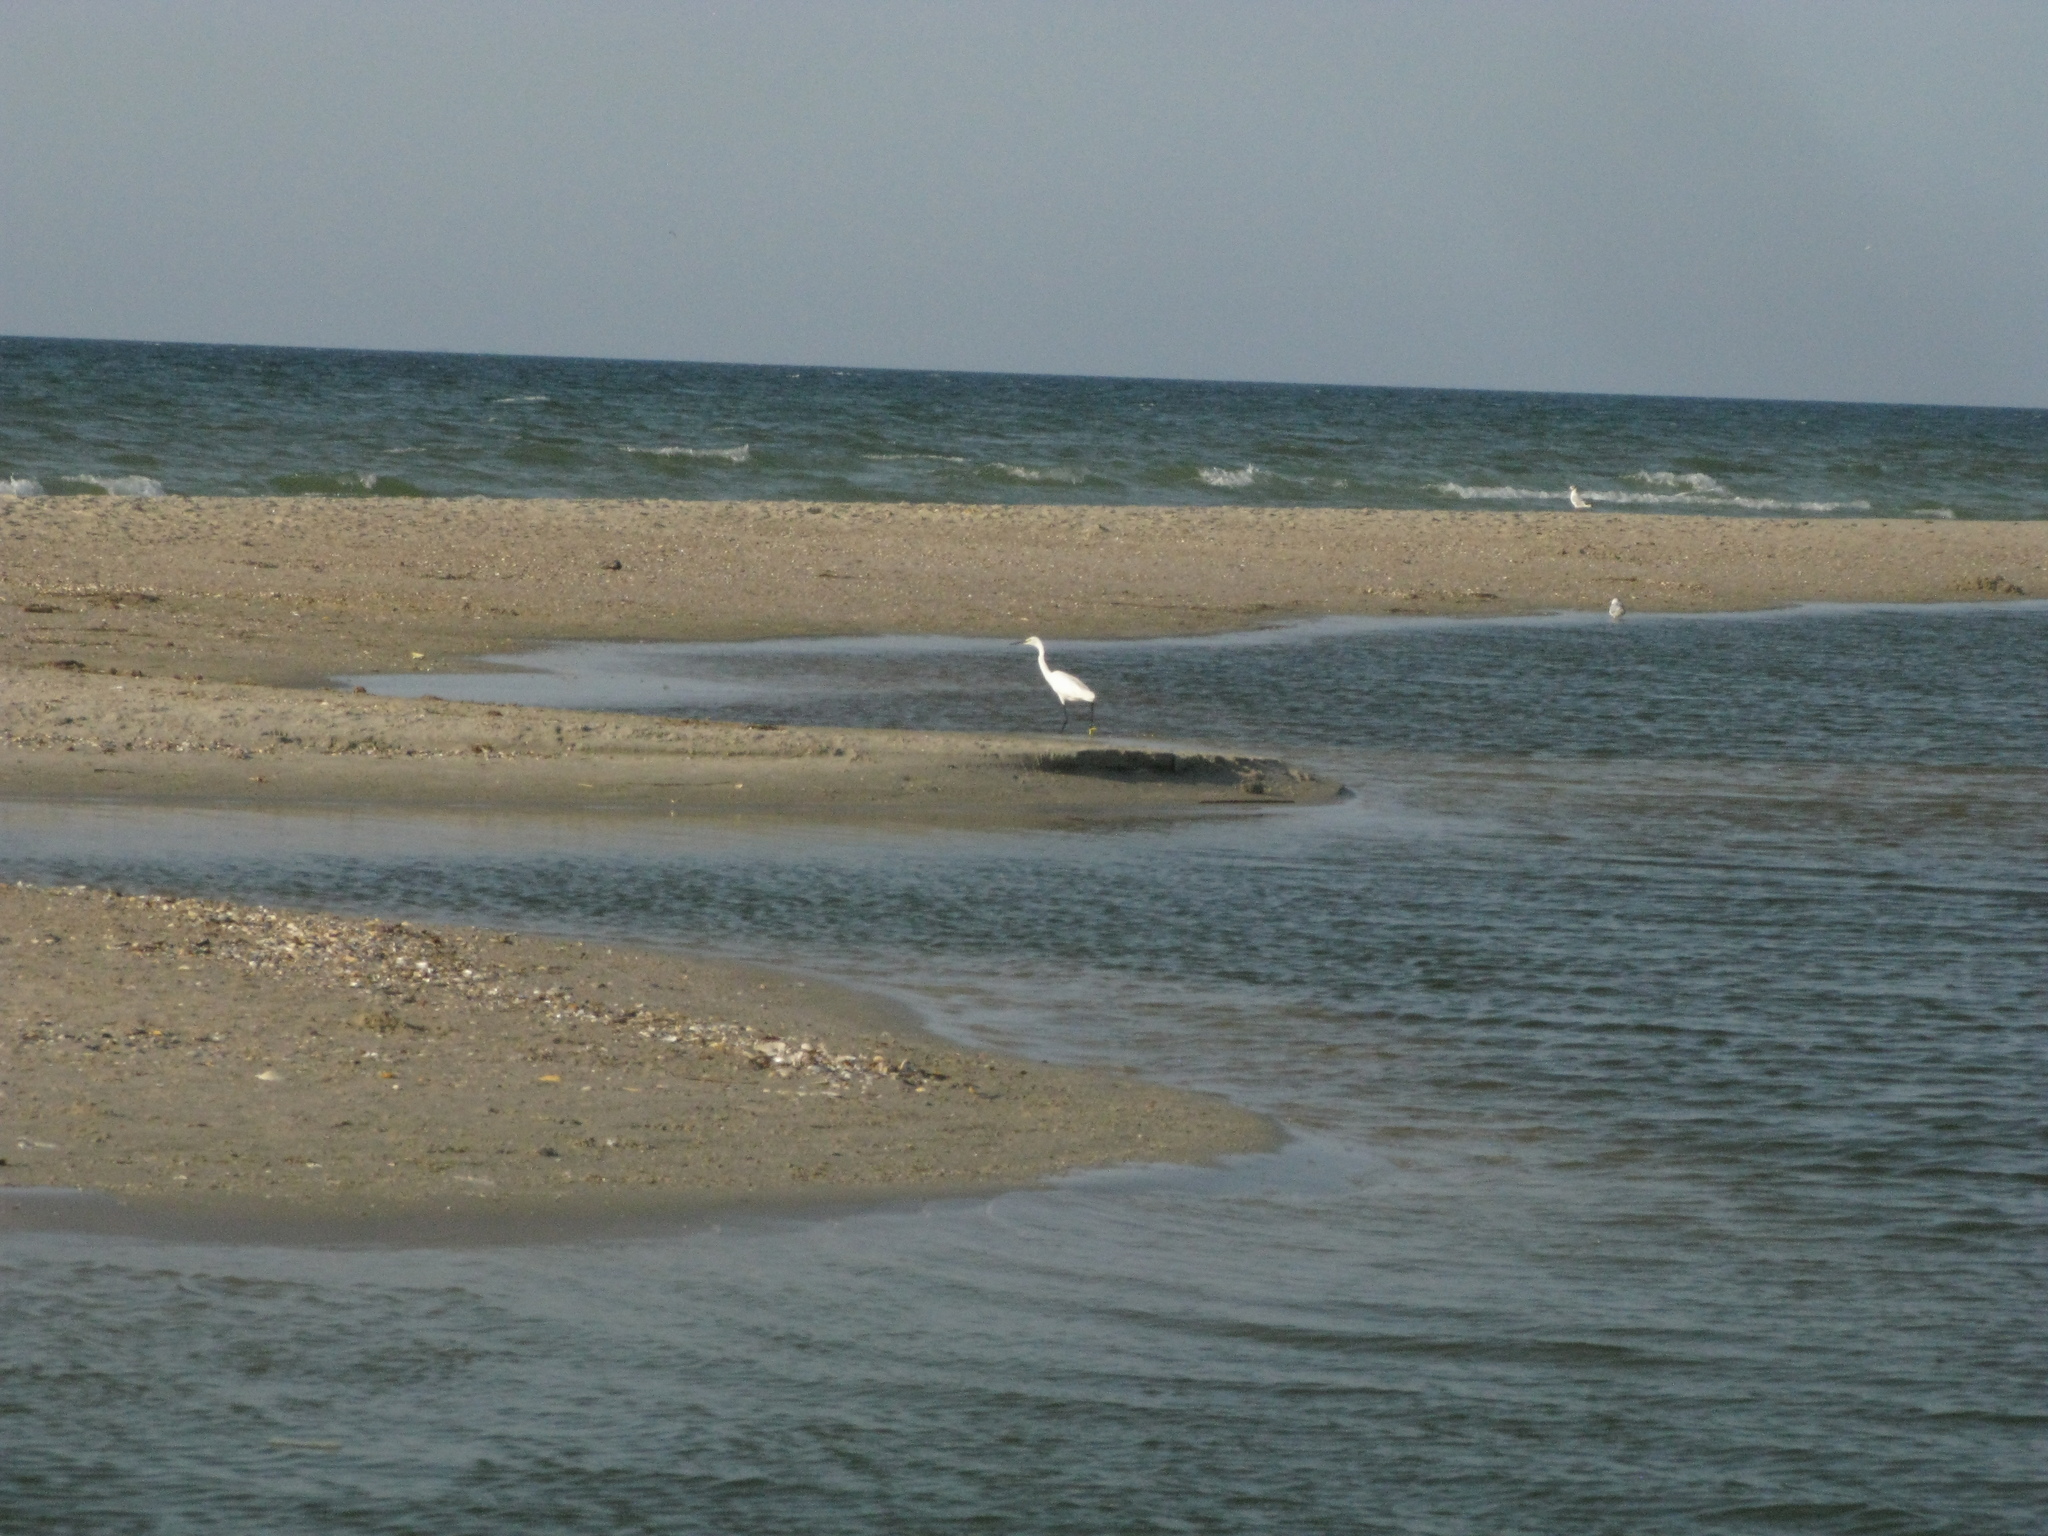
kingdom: Animalia
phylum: Chordata
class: Aves
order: Pelecaniformes
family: Ardeidae
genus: Egretta
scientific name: Egretta garzetta
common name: Little egret
